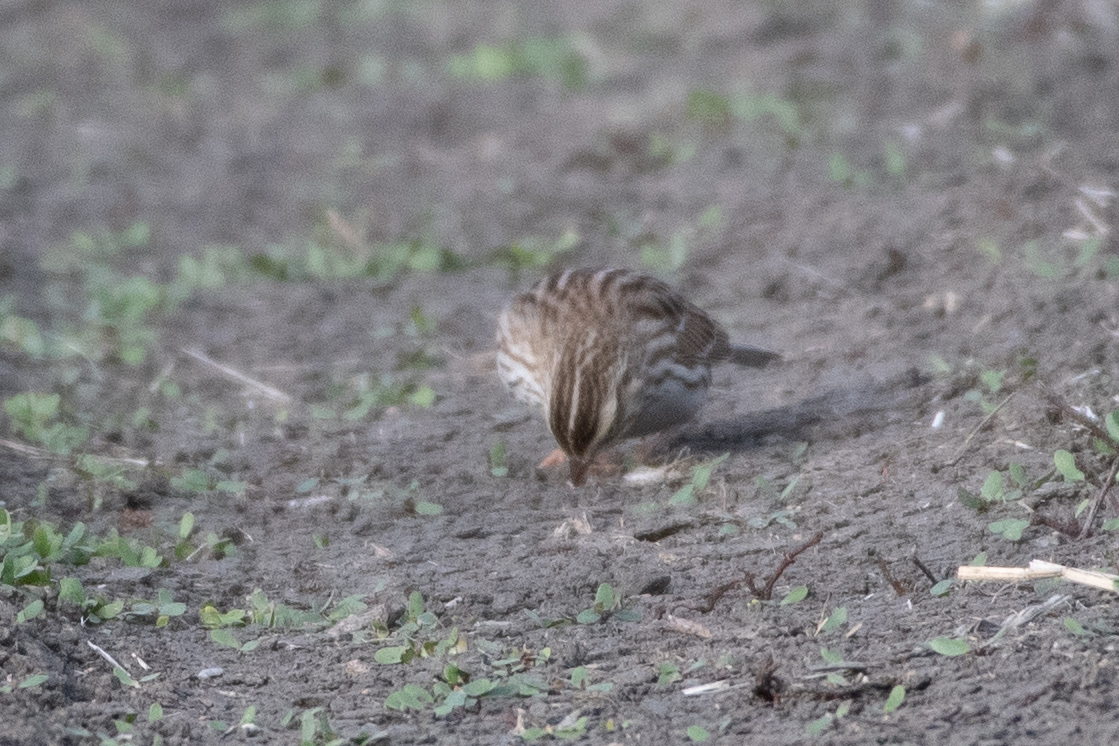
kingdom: Animalia
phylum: Chordata
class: Aves
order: Passeriformes
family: Passerellidae
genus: Passerculus
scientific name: Passerculus sandwichensis
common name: Savannah sparrow
